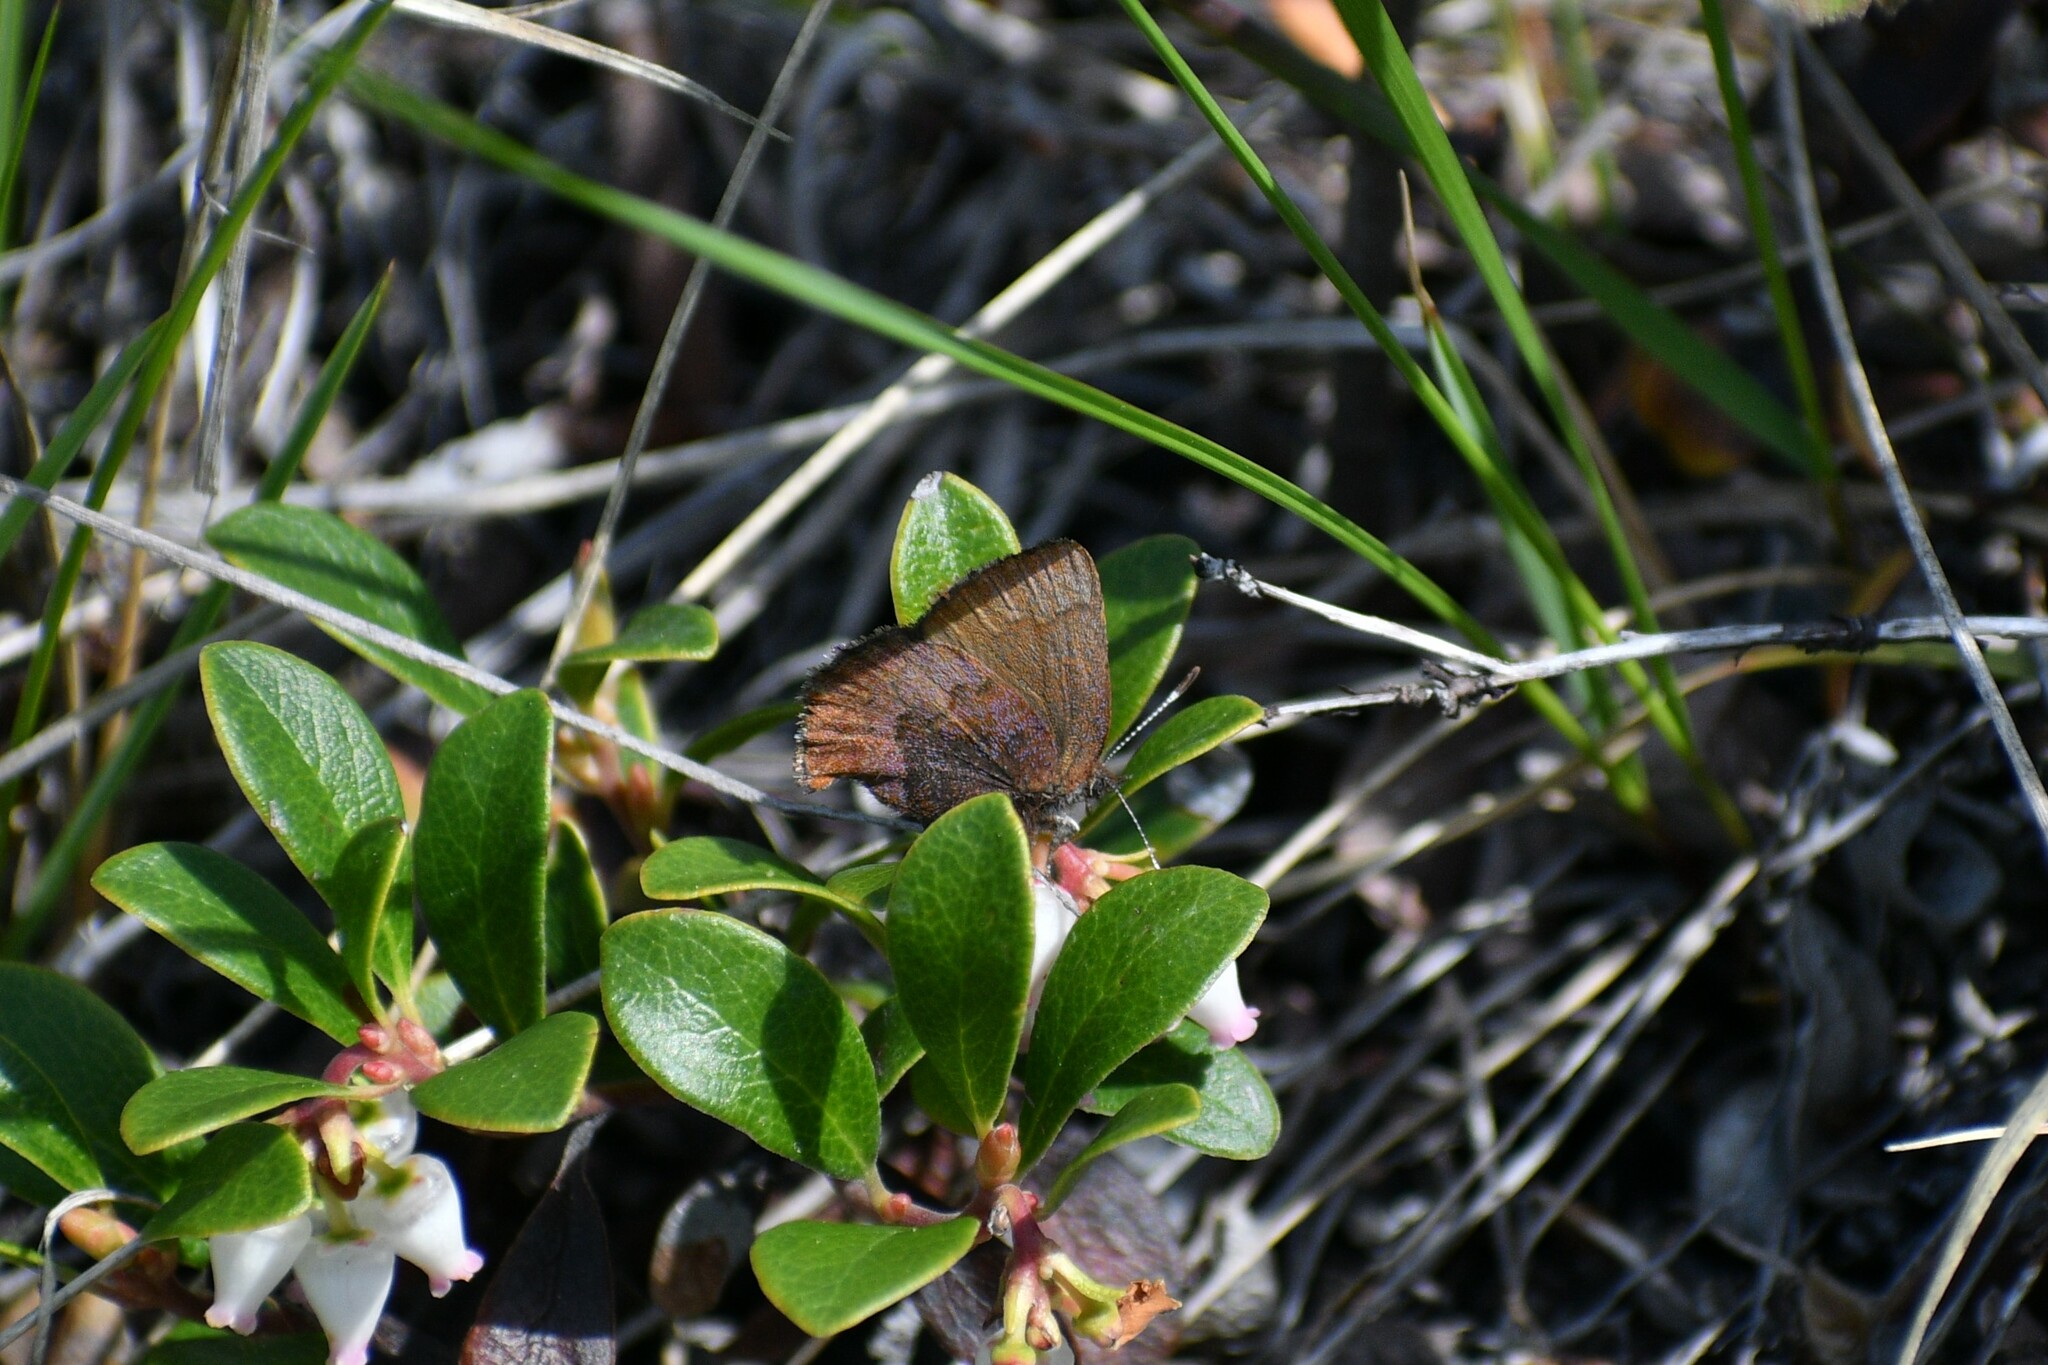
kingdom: Animalia
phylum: Arthropoda
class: Insecta
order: Lepidoptera
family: Lycaenidae
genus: Incisalia
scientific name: Incisalia irioides
